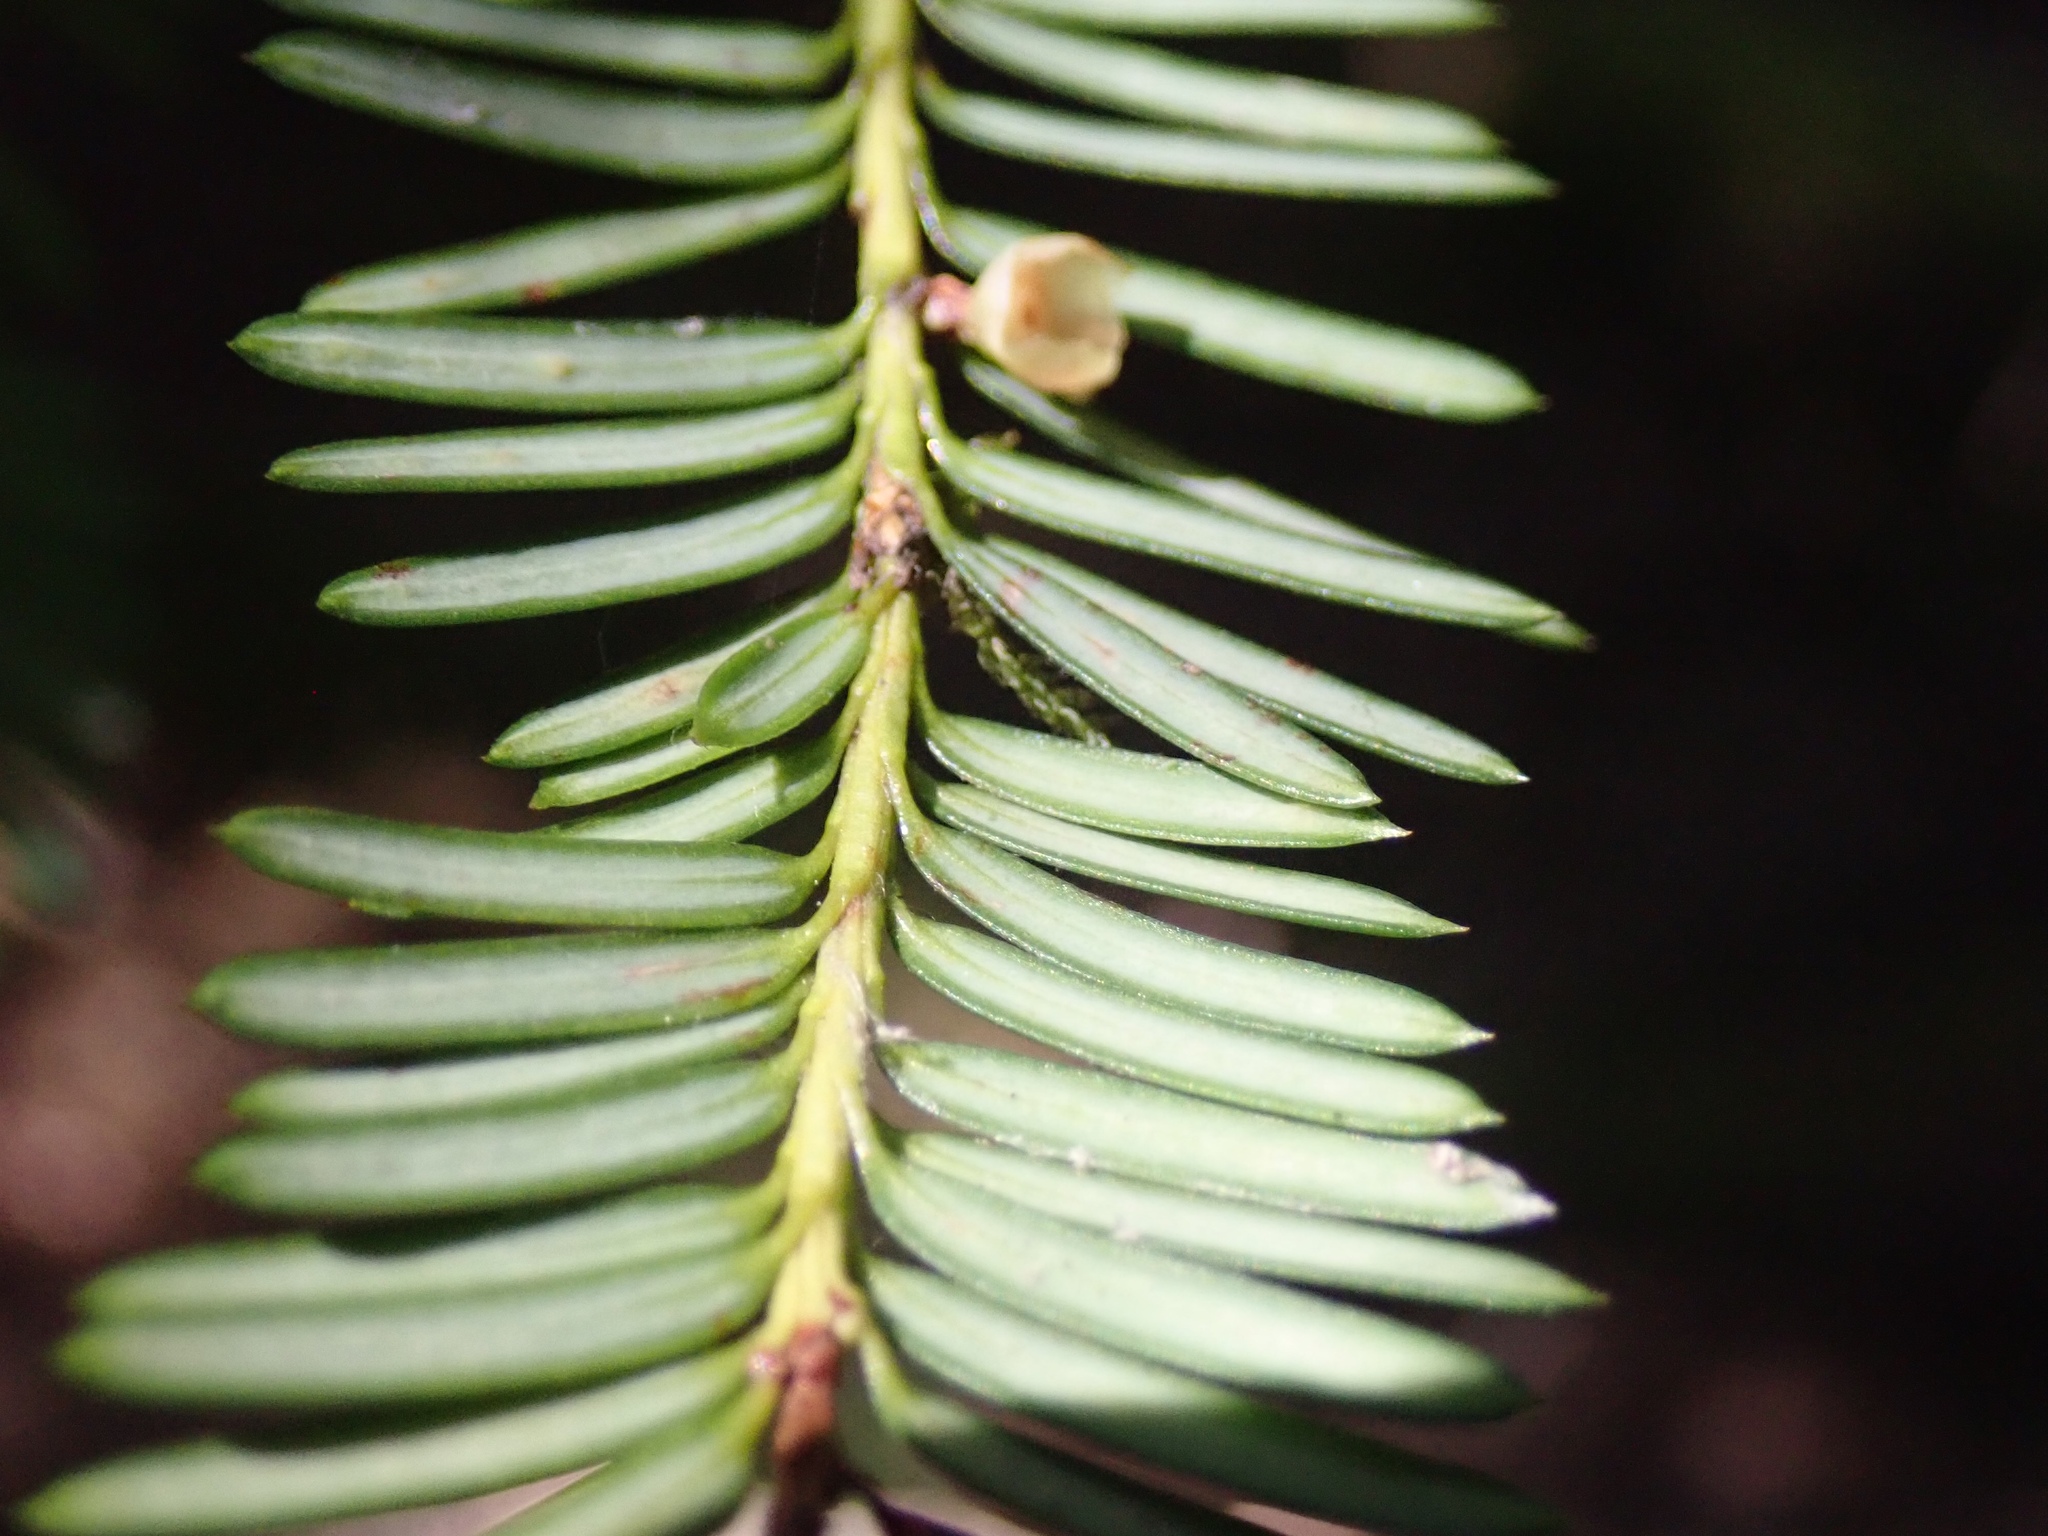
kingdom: Plantae
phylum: Tracheophyta
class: Pinopsida
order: Pinales
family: Taxaceae
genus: Taxus
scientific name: Taxus brevifolia
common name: Pacific yew
